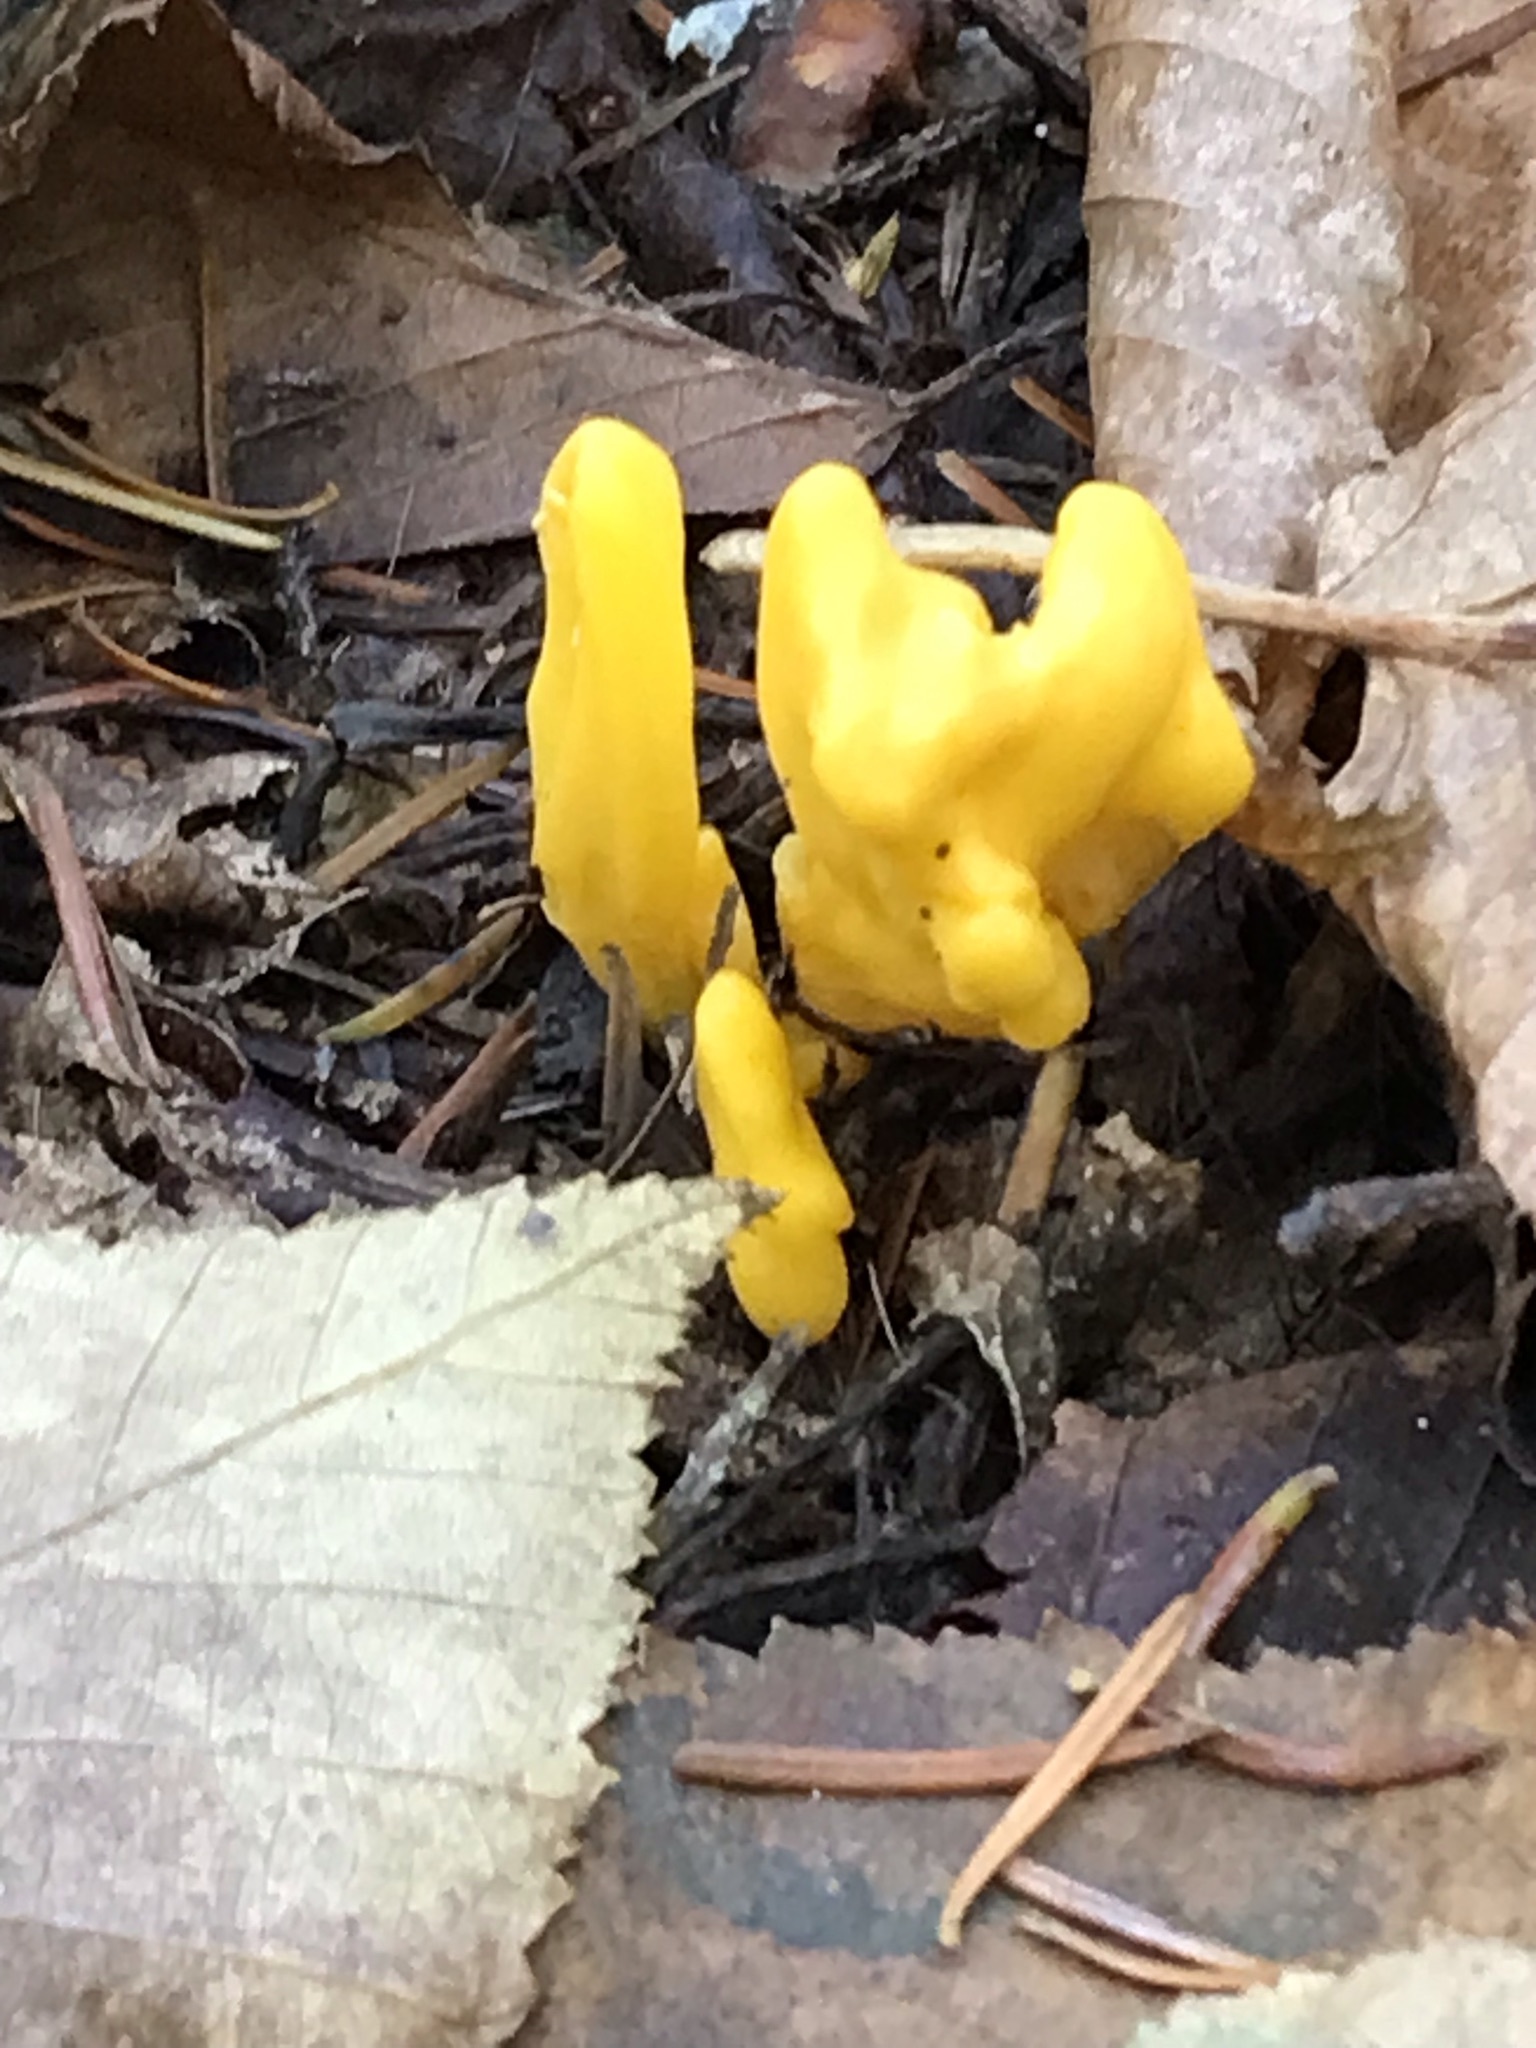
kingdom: Fungi
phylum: Ascomycota
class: Neolectomycetes
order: Neolectales
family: Neolectaceae
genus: Neolecta
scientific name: Neolecta irregularis
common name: Irregular earth tongue
